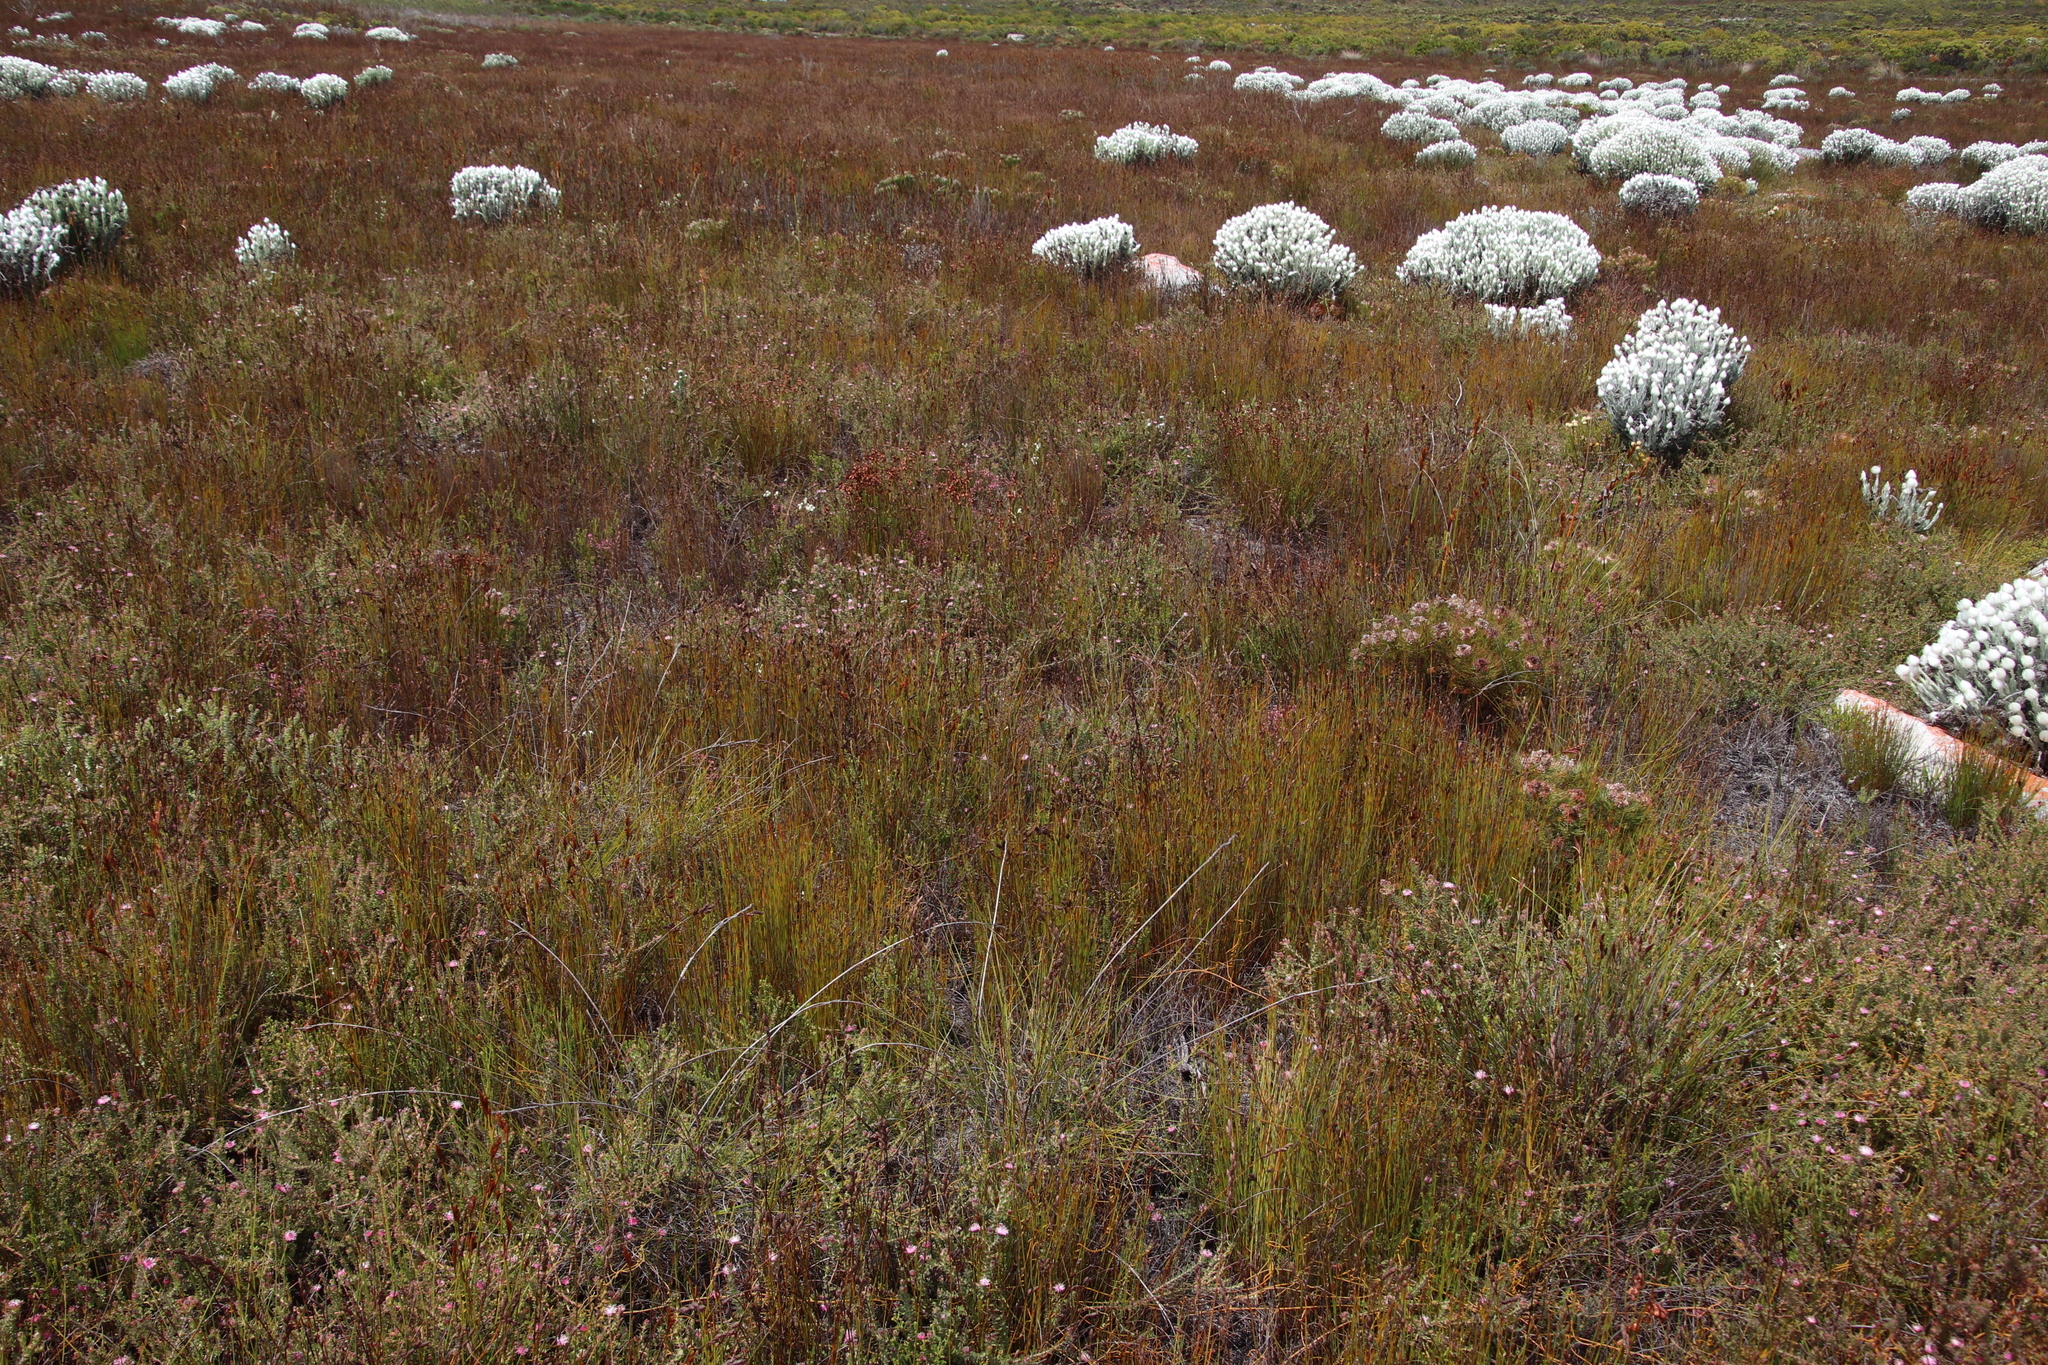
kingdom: Plantae
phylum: Tracheophyta
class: Liliopsida
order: Poales
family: Restionaceae
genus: Elegia
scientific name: Elegia filacea
